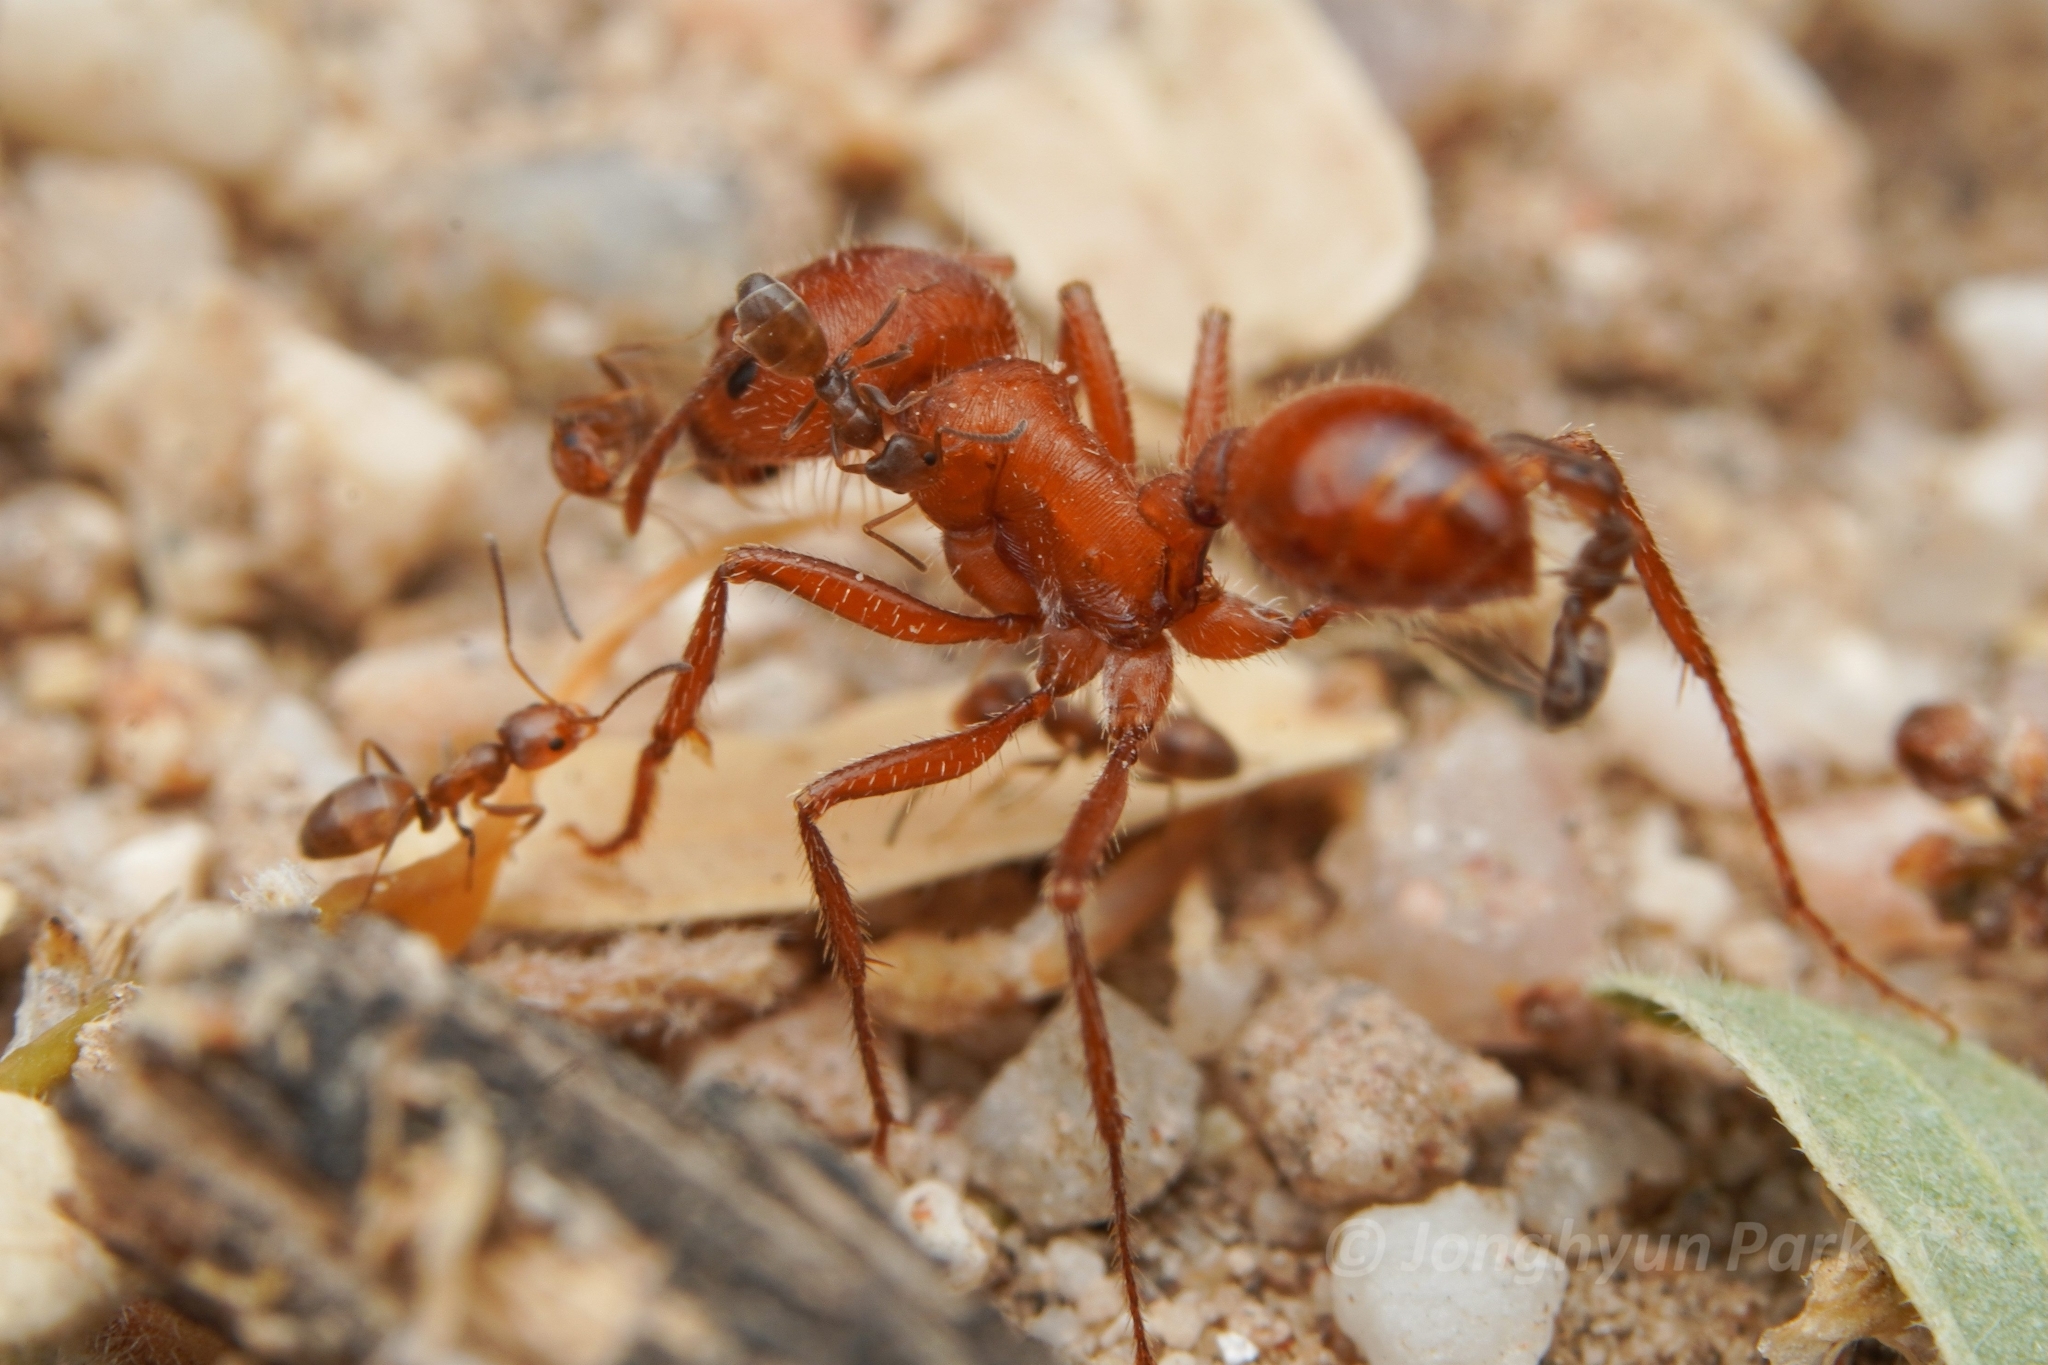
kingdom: Animalia
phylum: Arthropoda
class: Insecta
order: Hymenoptera
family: Formicidae
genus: Pogonomyrmex
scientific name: Pogonomyrmex maricopa
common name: Maricopa harvester ant
